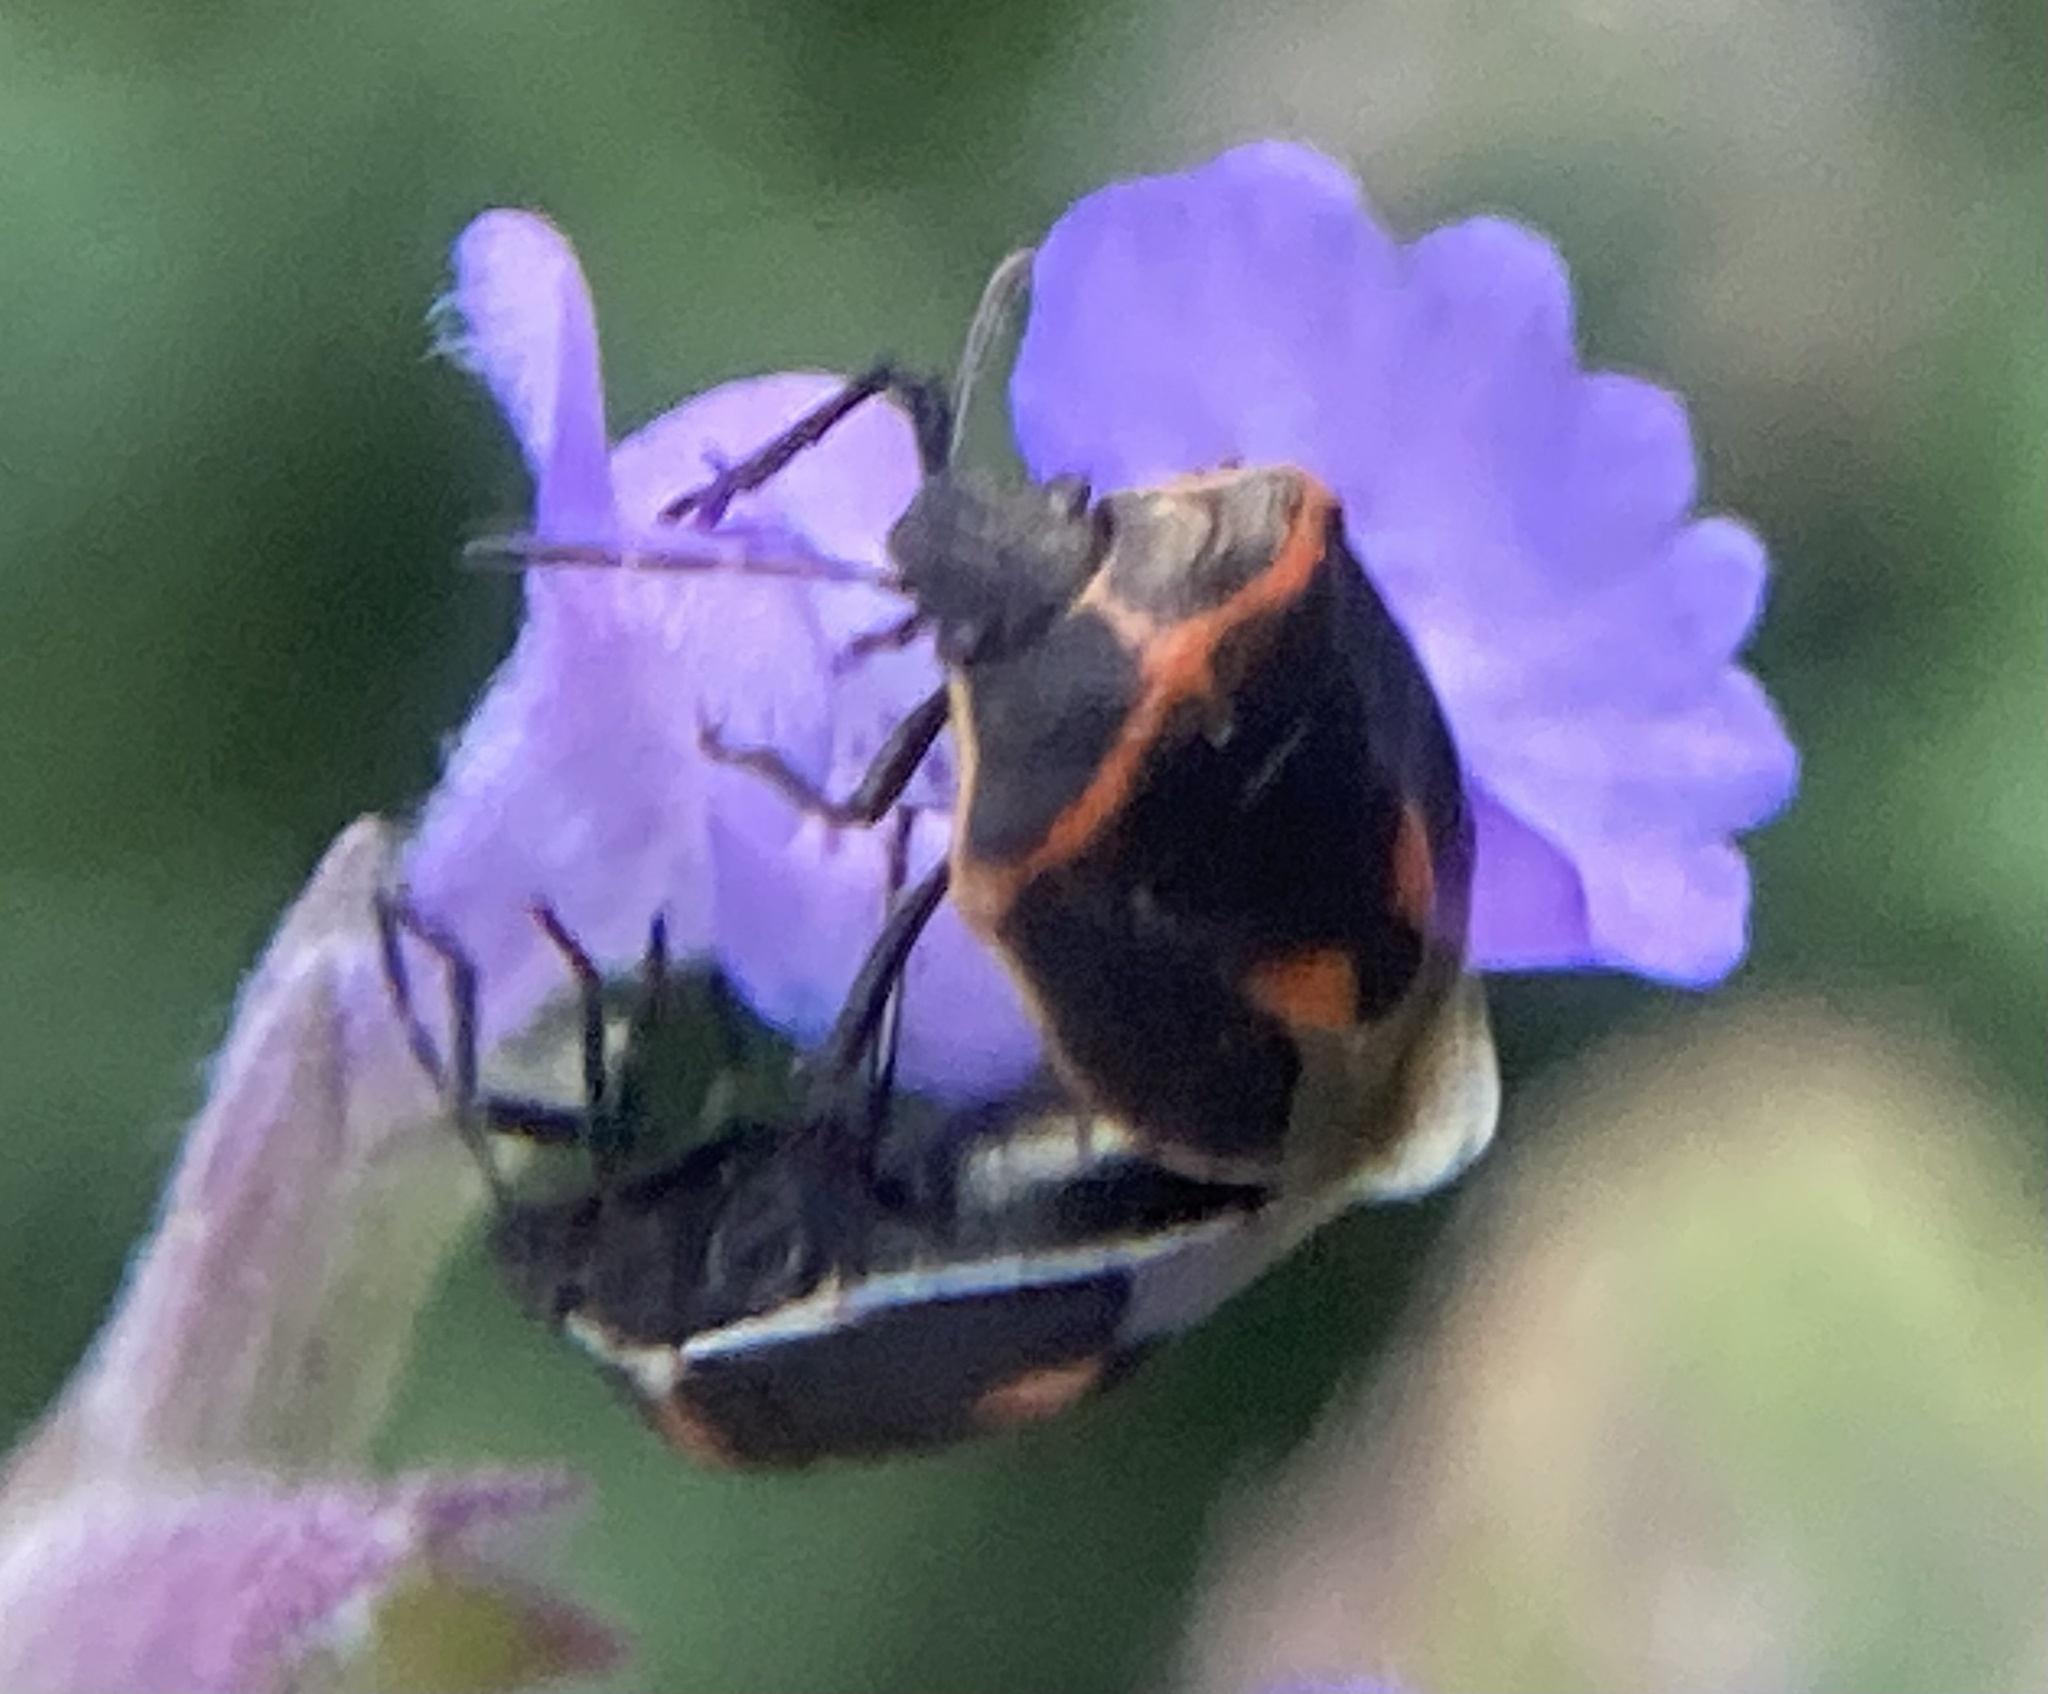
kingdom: Animalia
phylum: Arthropoda
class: Insecta
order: Hemiptera
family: Pentatomidae
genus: Cosmopepla
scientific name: Cosmopepla lintneriana
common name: Twice-stabbed stink bug
